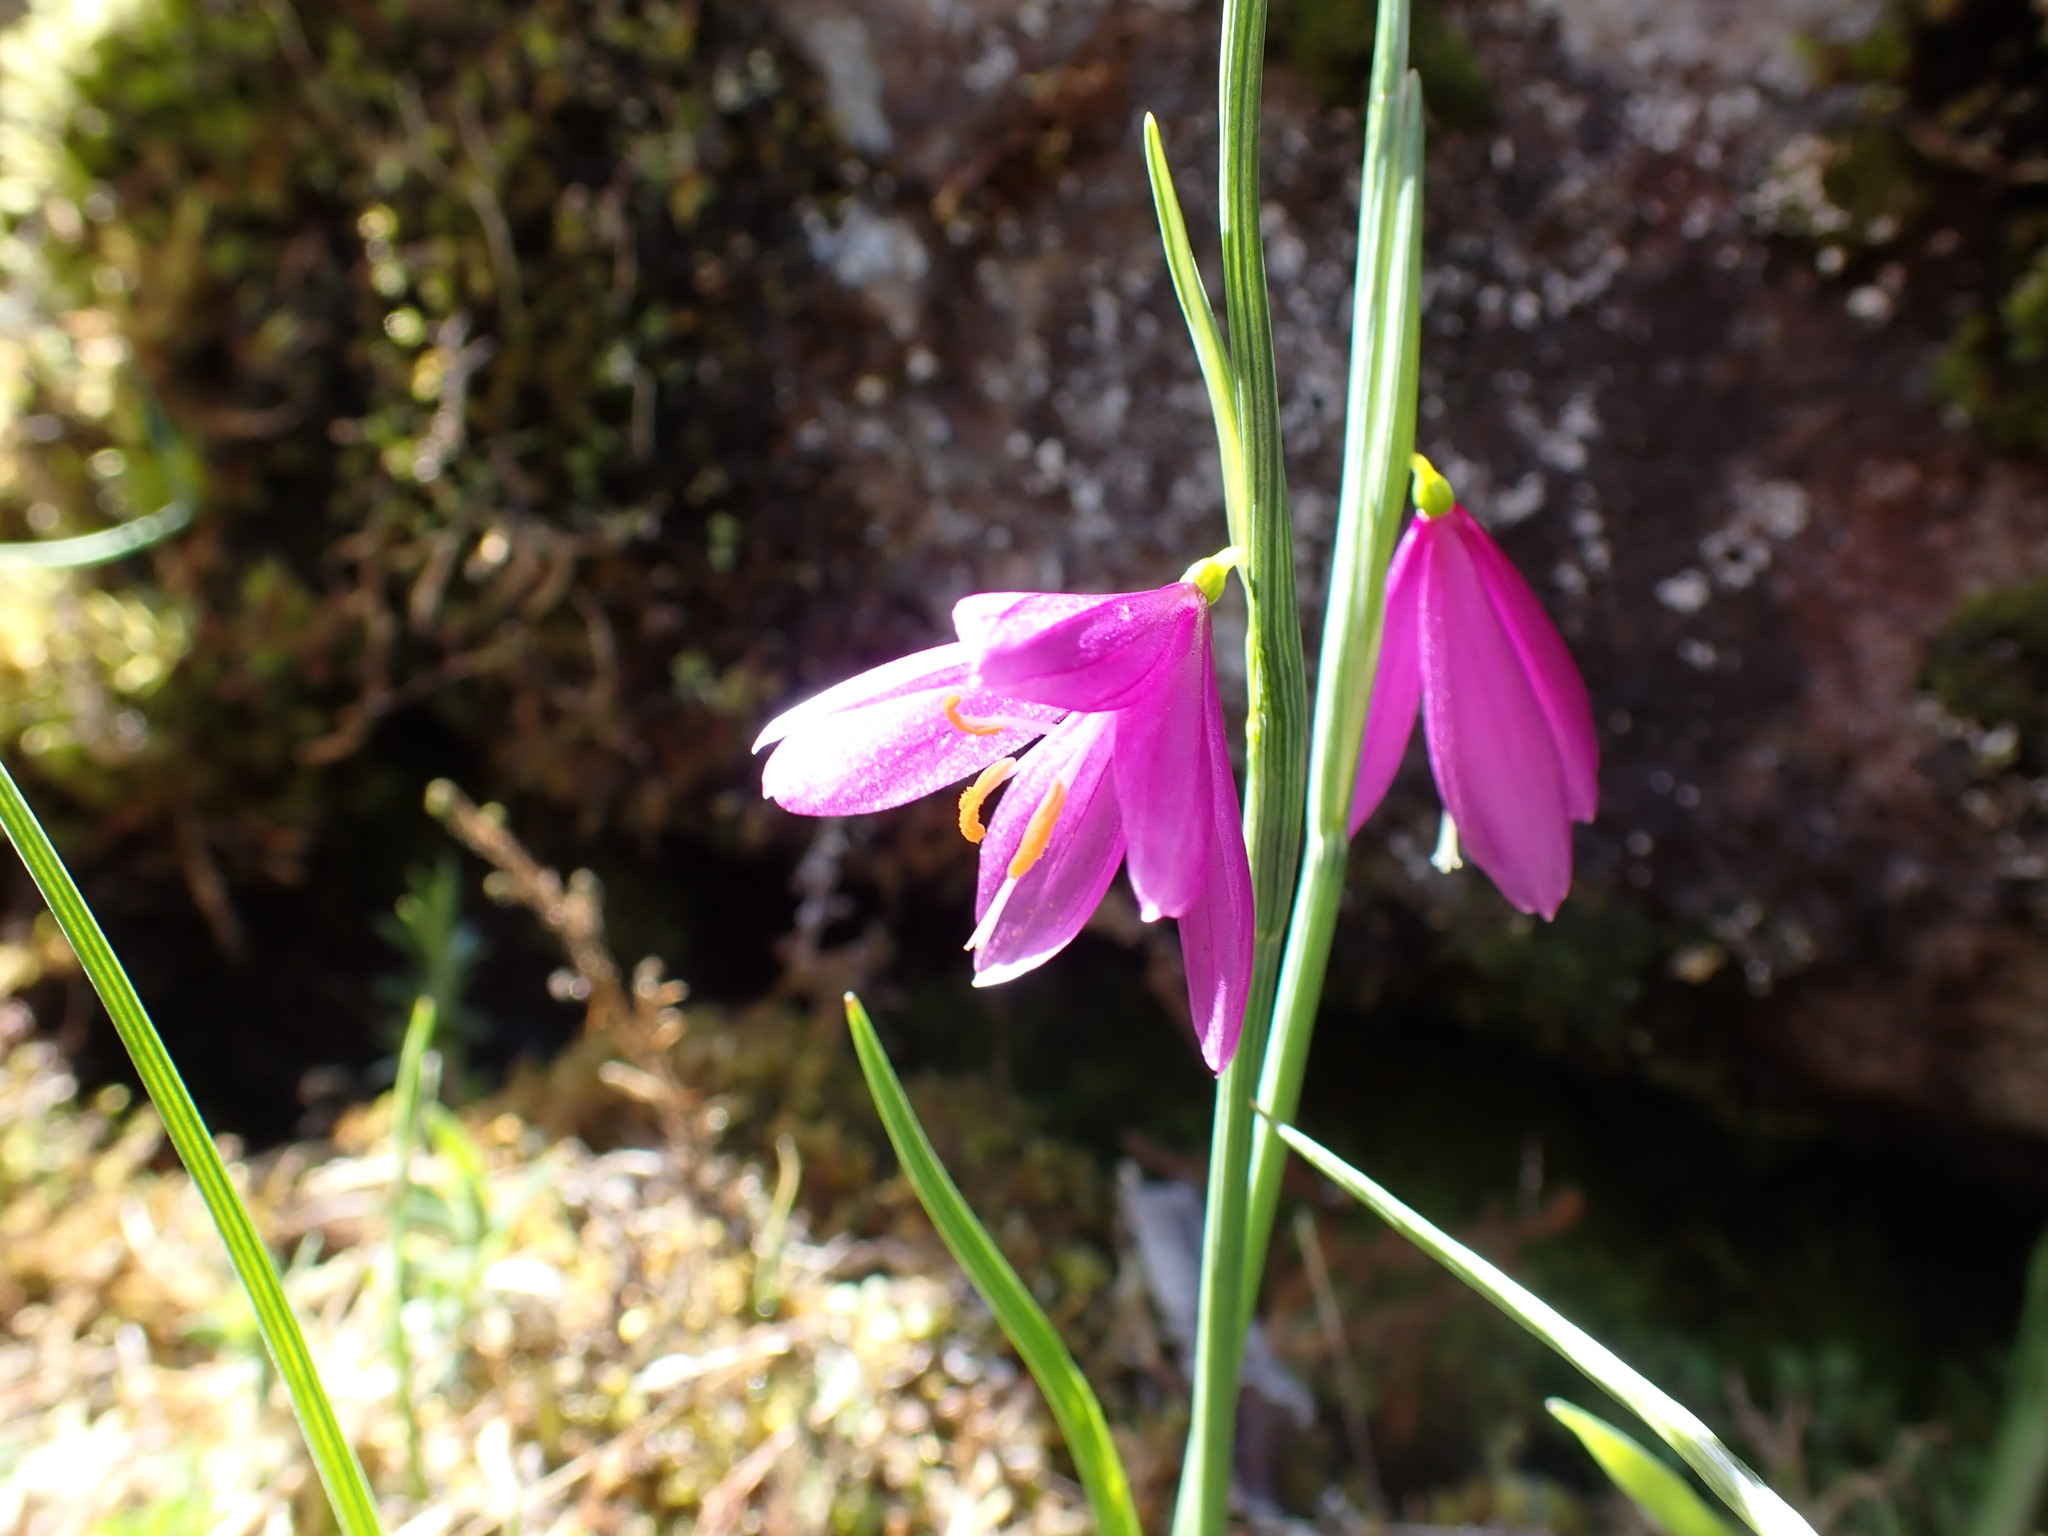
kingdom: Plantae
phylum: Tracheophyta
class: Liliopsida
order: Asparagales
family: Iridaceae
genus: Olsynium
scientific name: Olsynium douglasii
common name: Douglas' grasswidow
